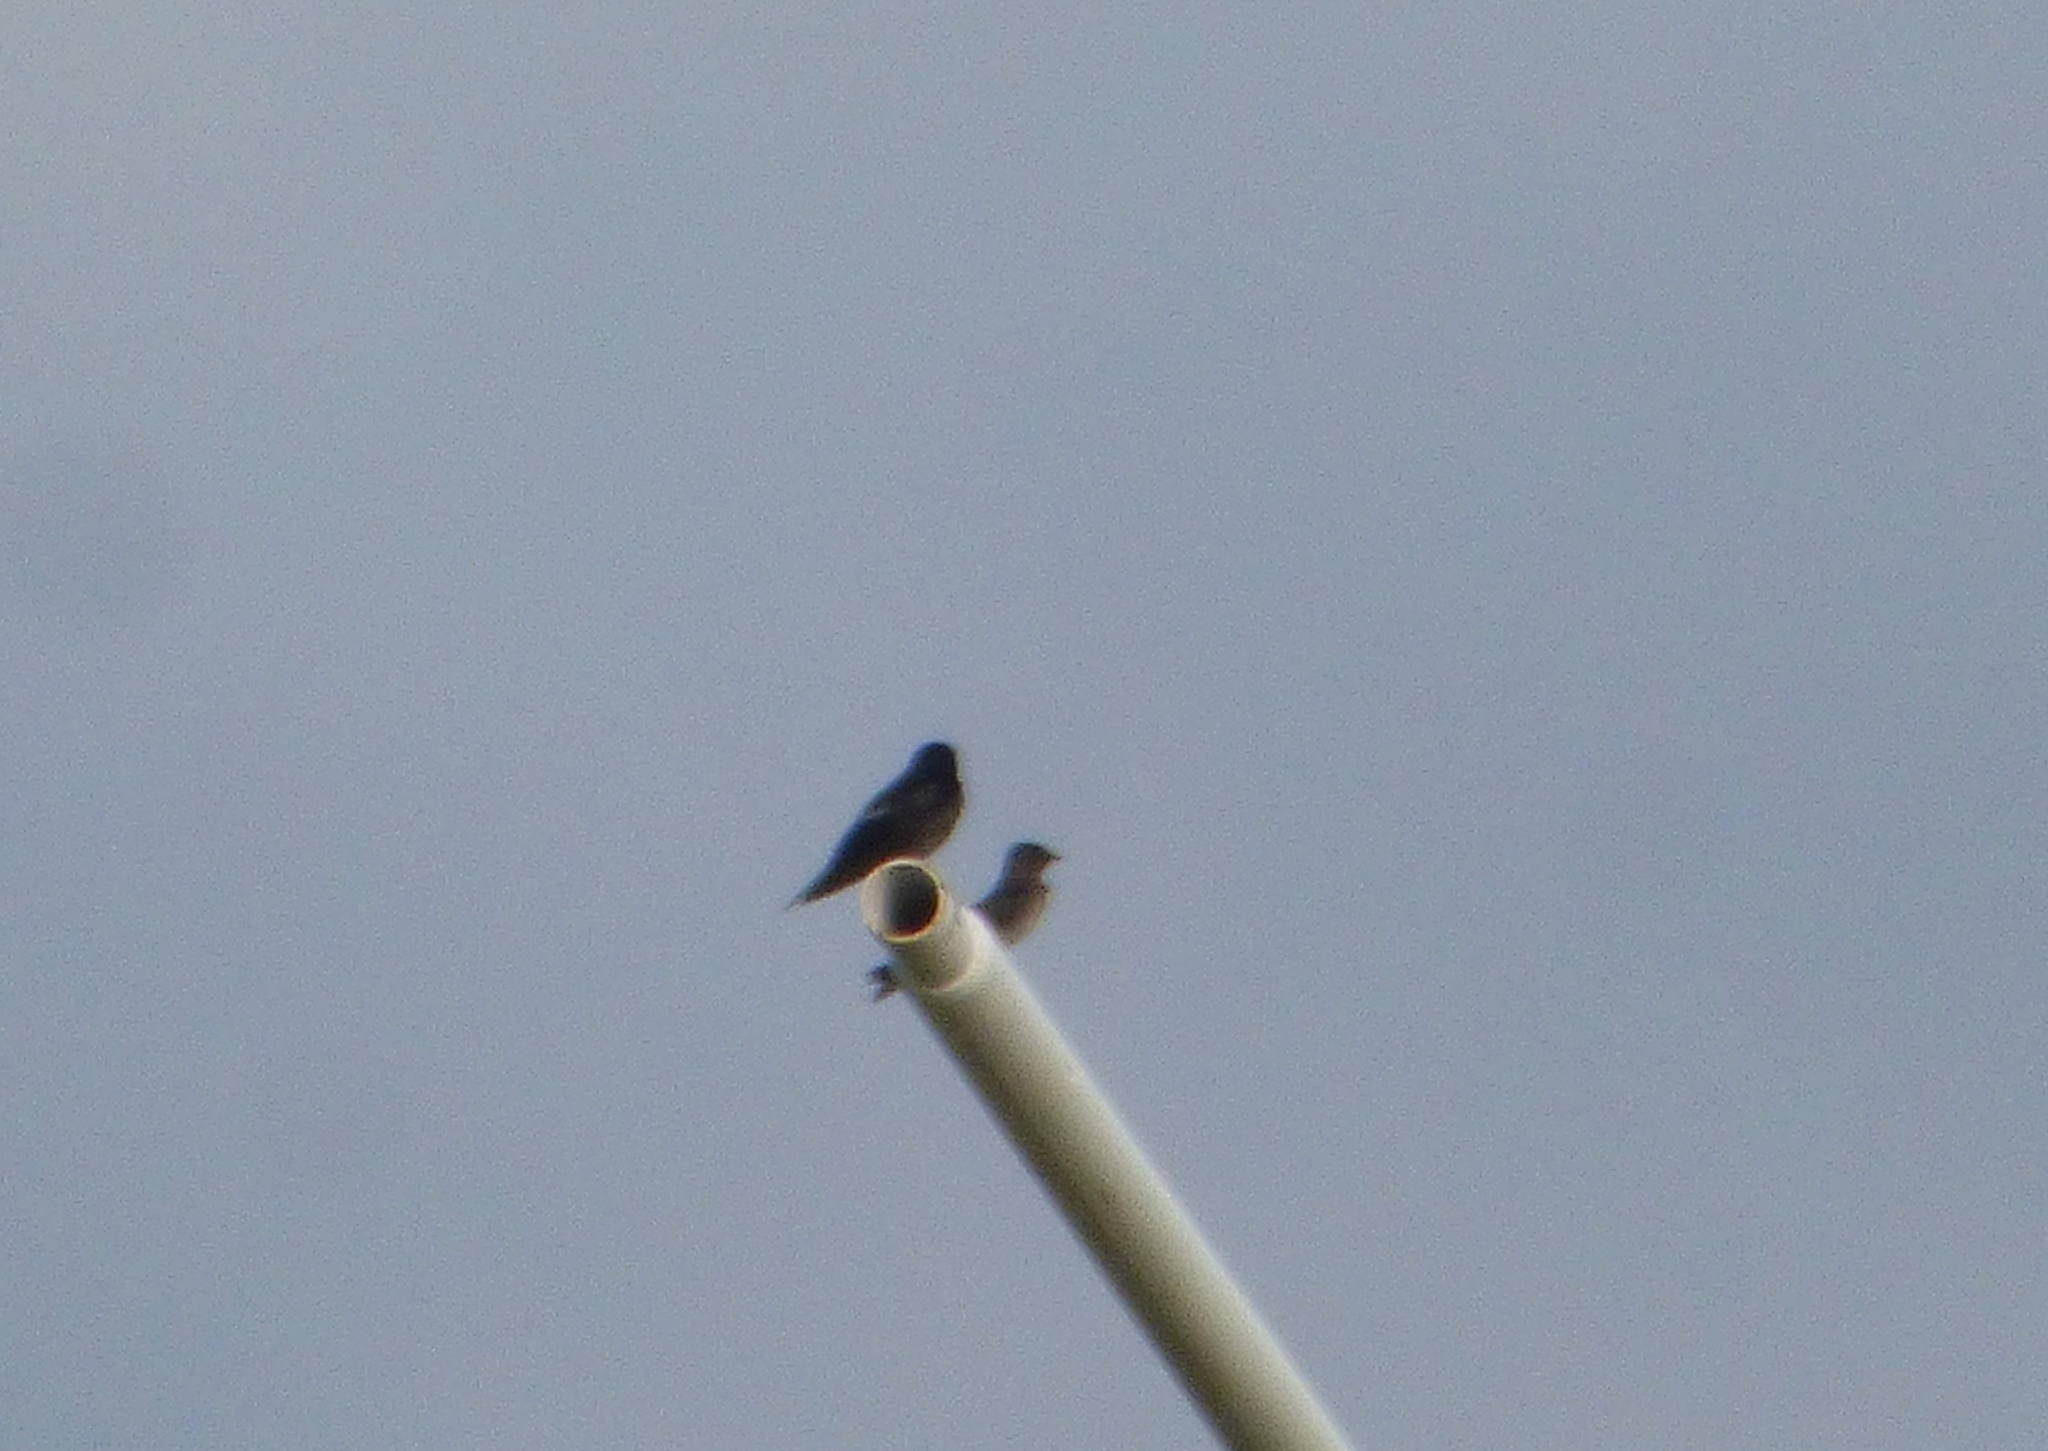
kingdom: Animalia
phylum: Chordata
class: Aves
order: Passeriformes
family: Hirundinidae
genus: Progne
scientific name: Progne elegans
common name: Southern martin
